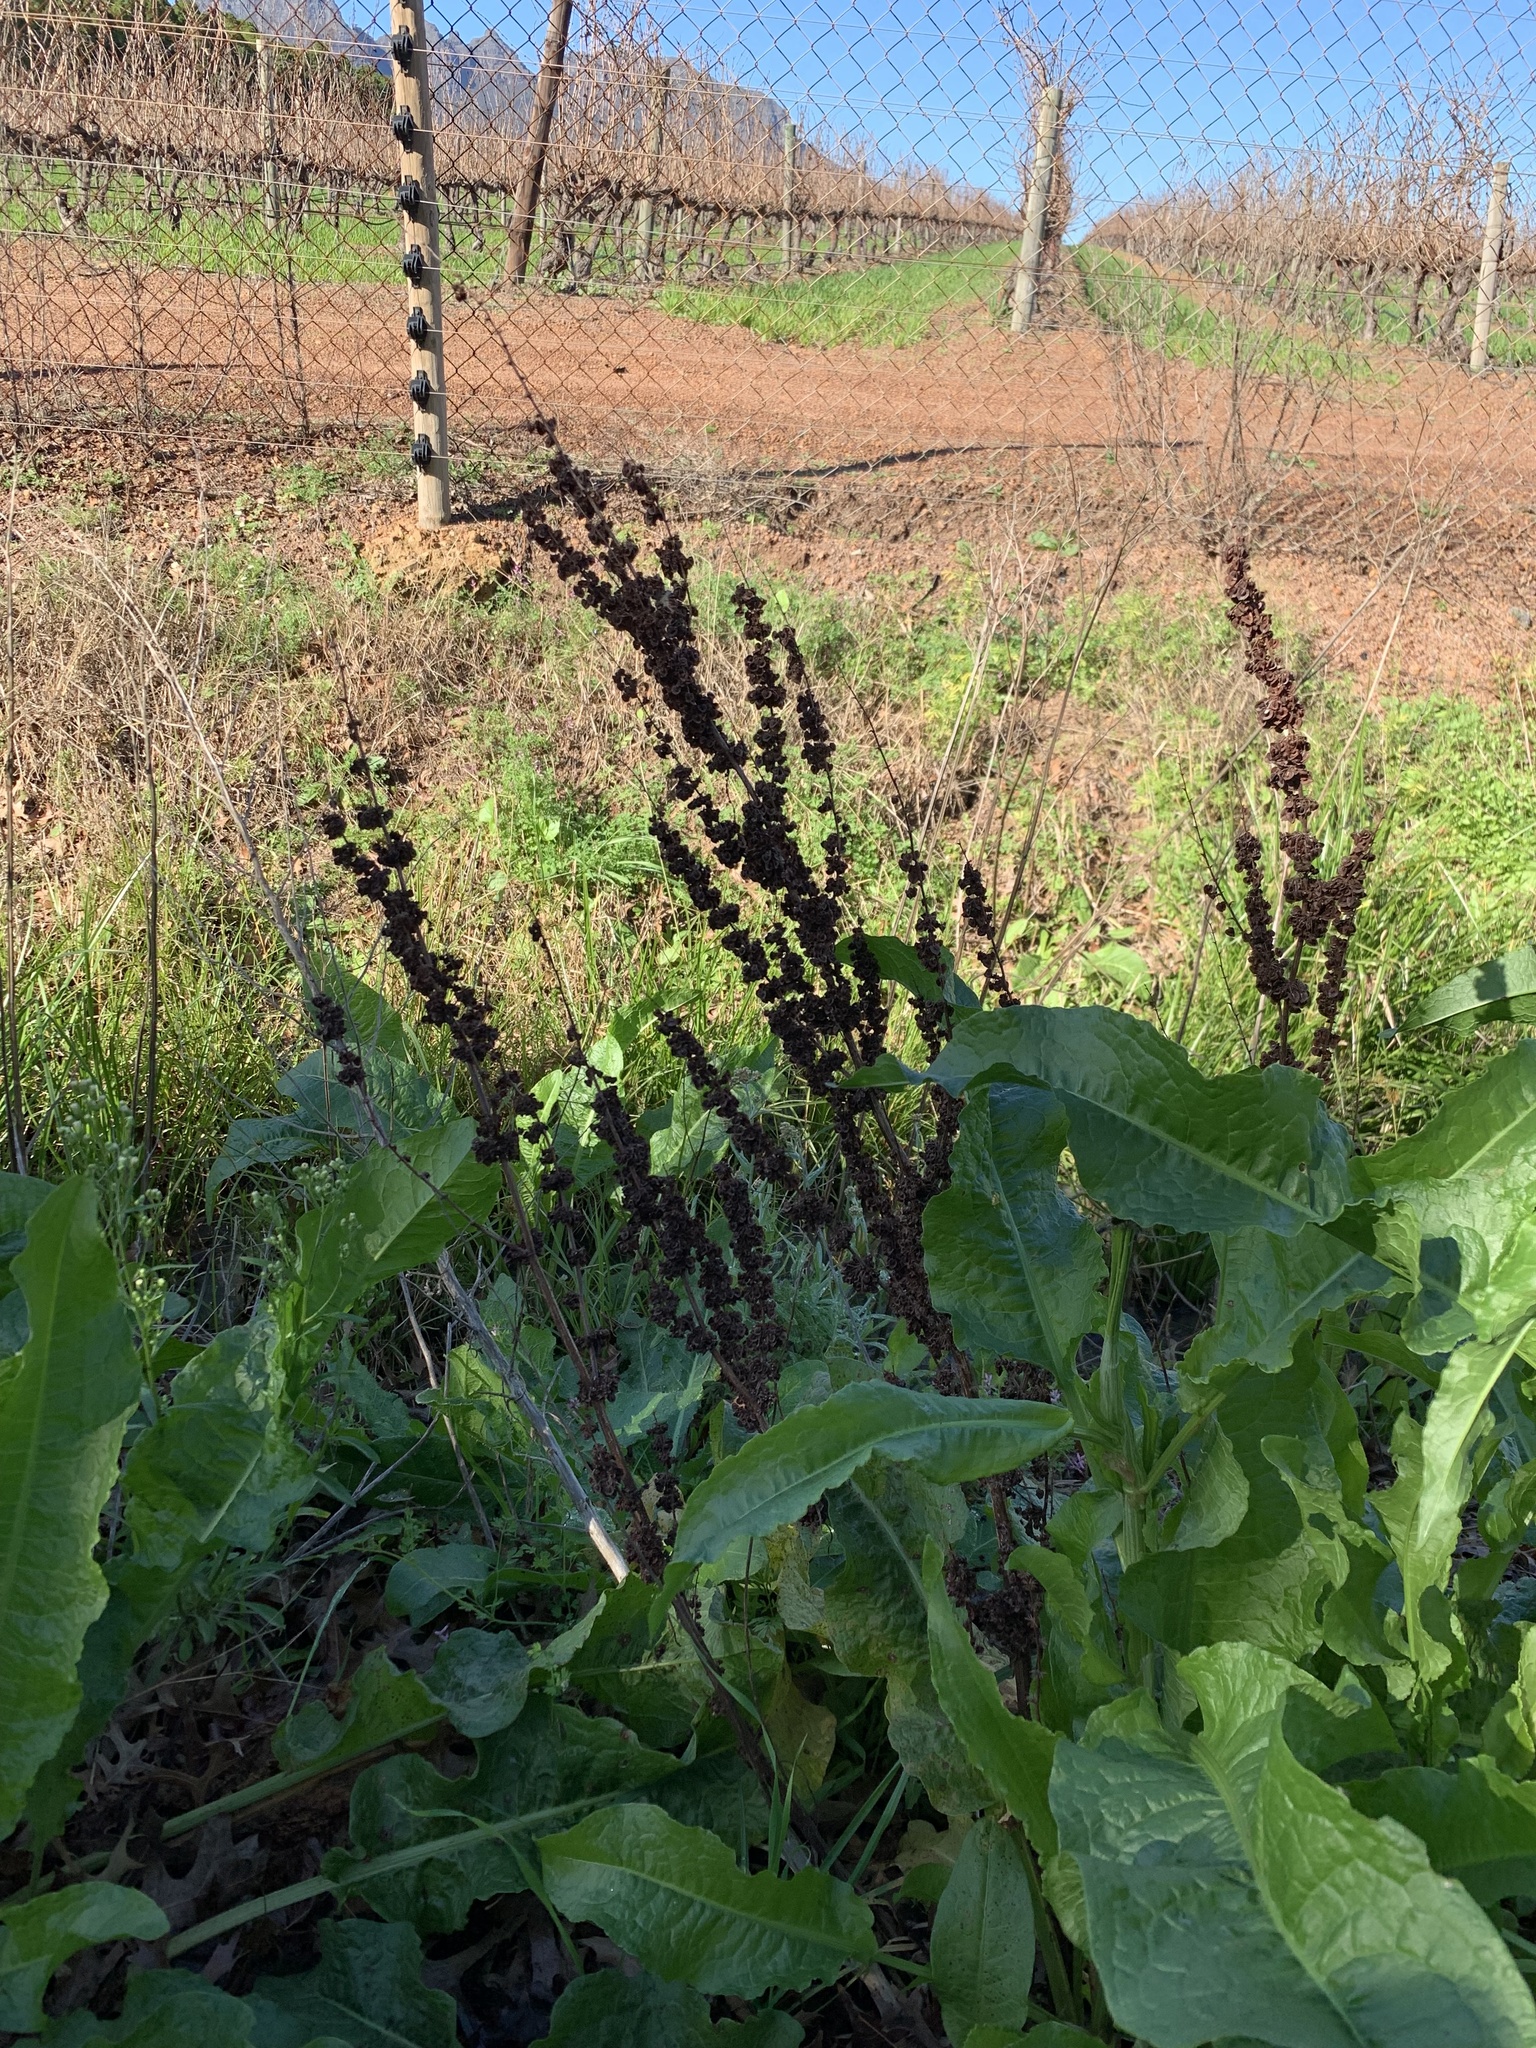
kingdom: Plantae
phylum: Tracheophyta
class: Magnoliopsida
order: Caryophyllales
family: Polygonaceae
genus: Rumex
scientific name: Rumex crispus
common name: Curled dock
